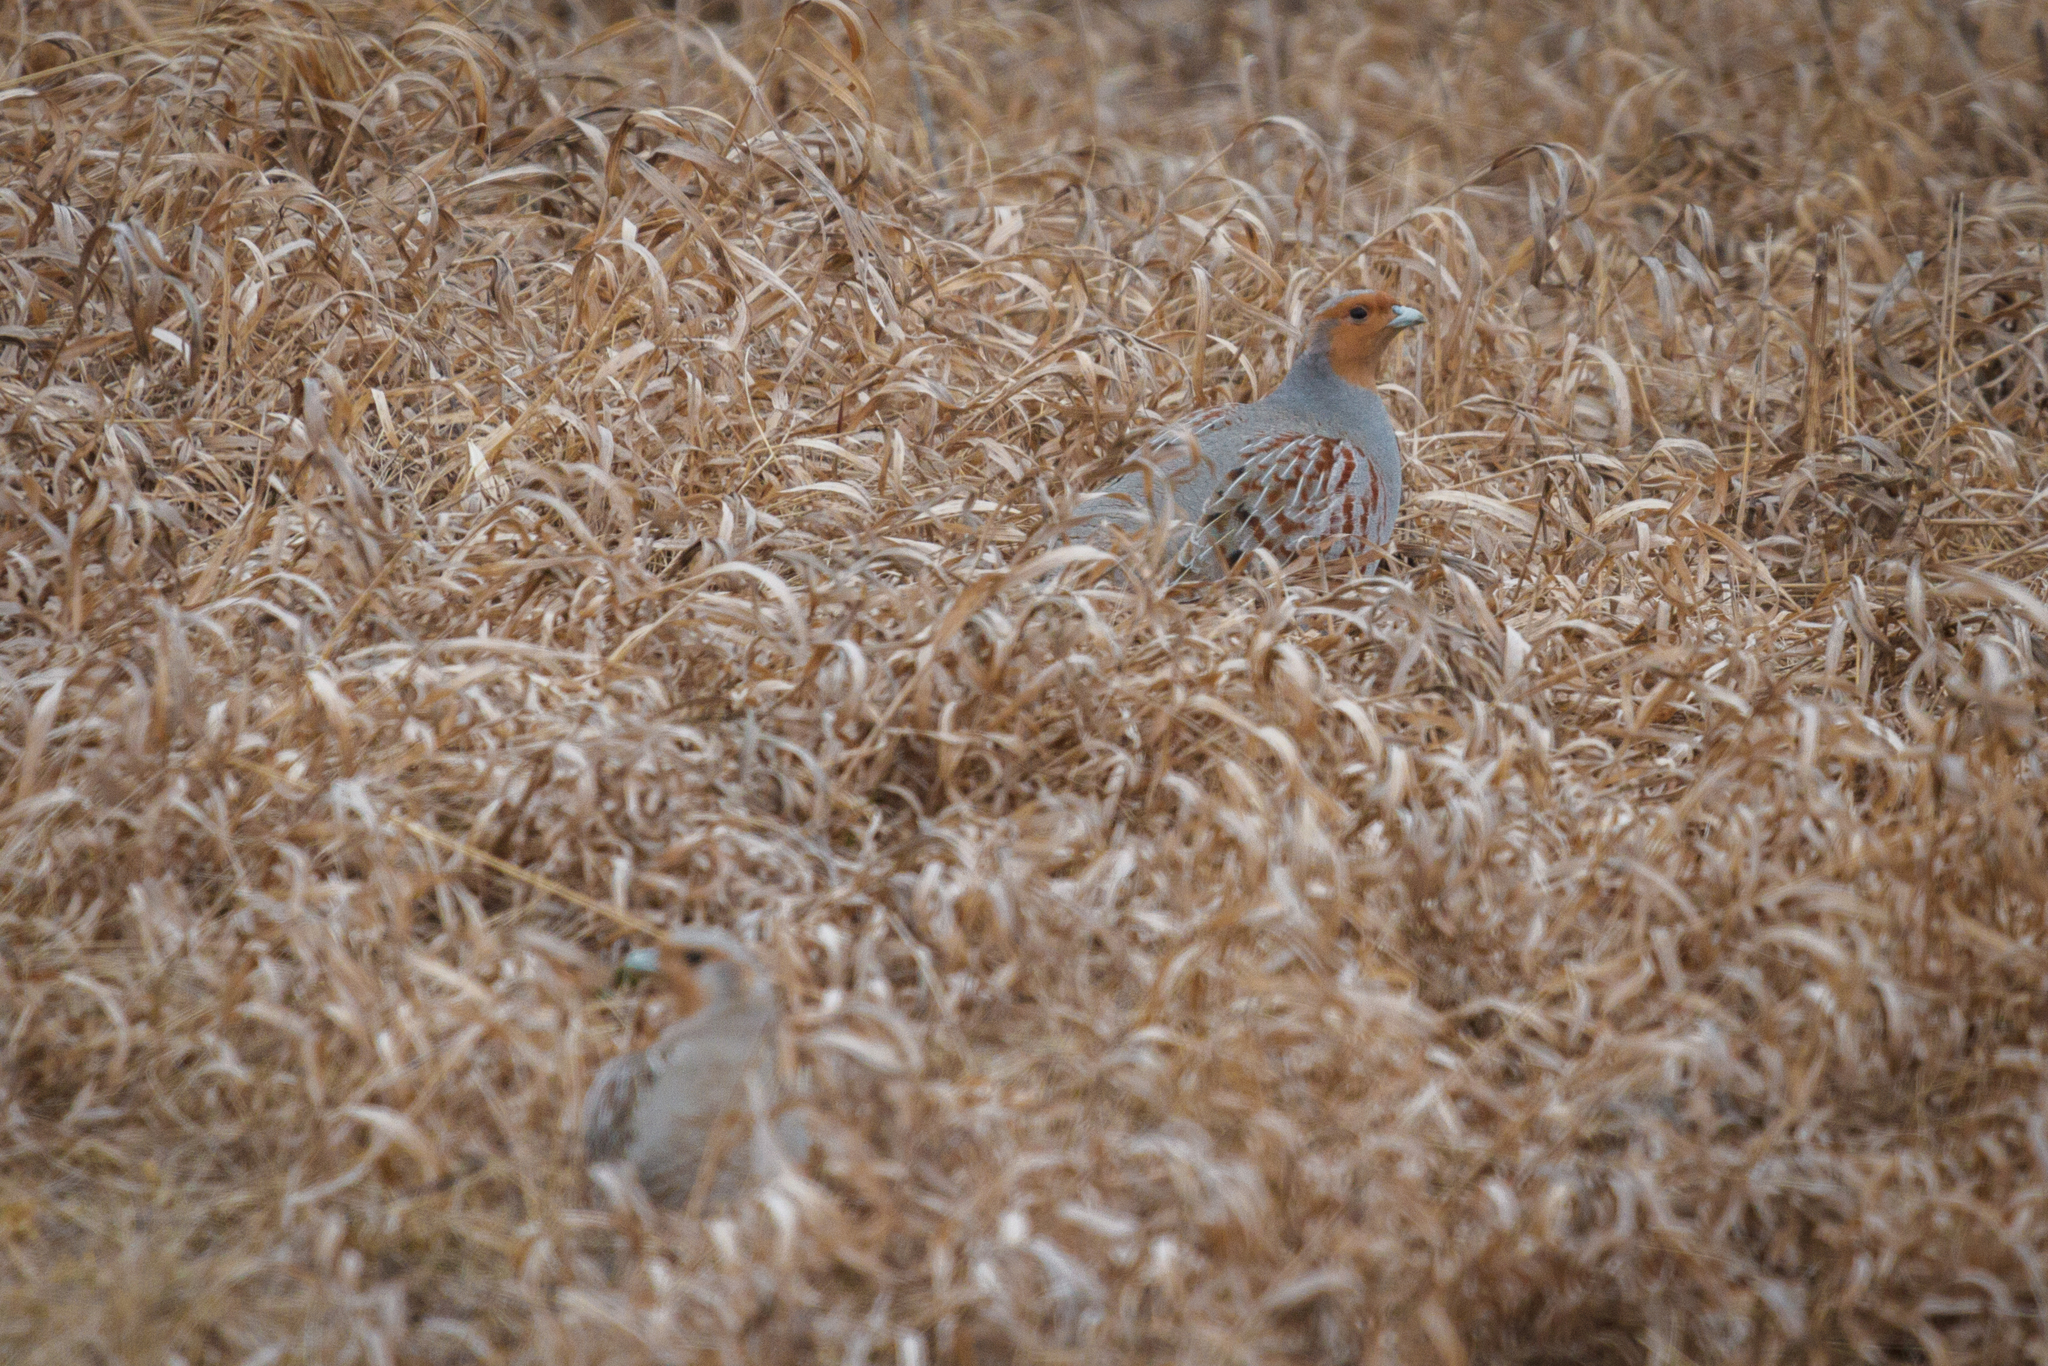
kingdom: Animalia
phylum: Chordata
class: Aves
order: Galliformes
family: Phasianidae
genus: Perdix
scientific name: Perdix perdix
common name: Grey partridge
